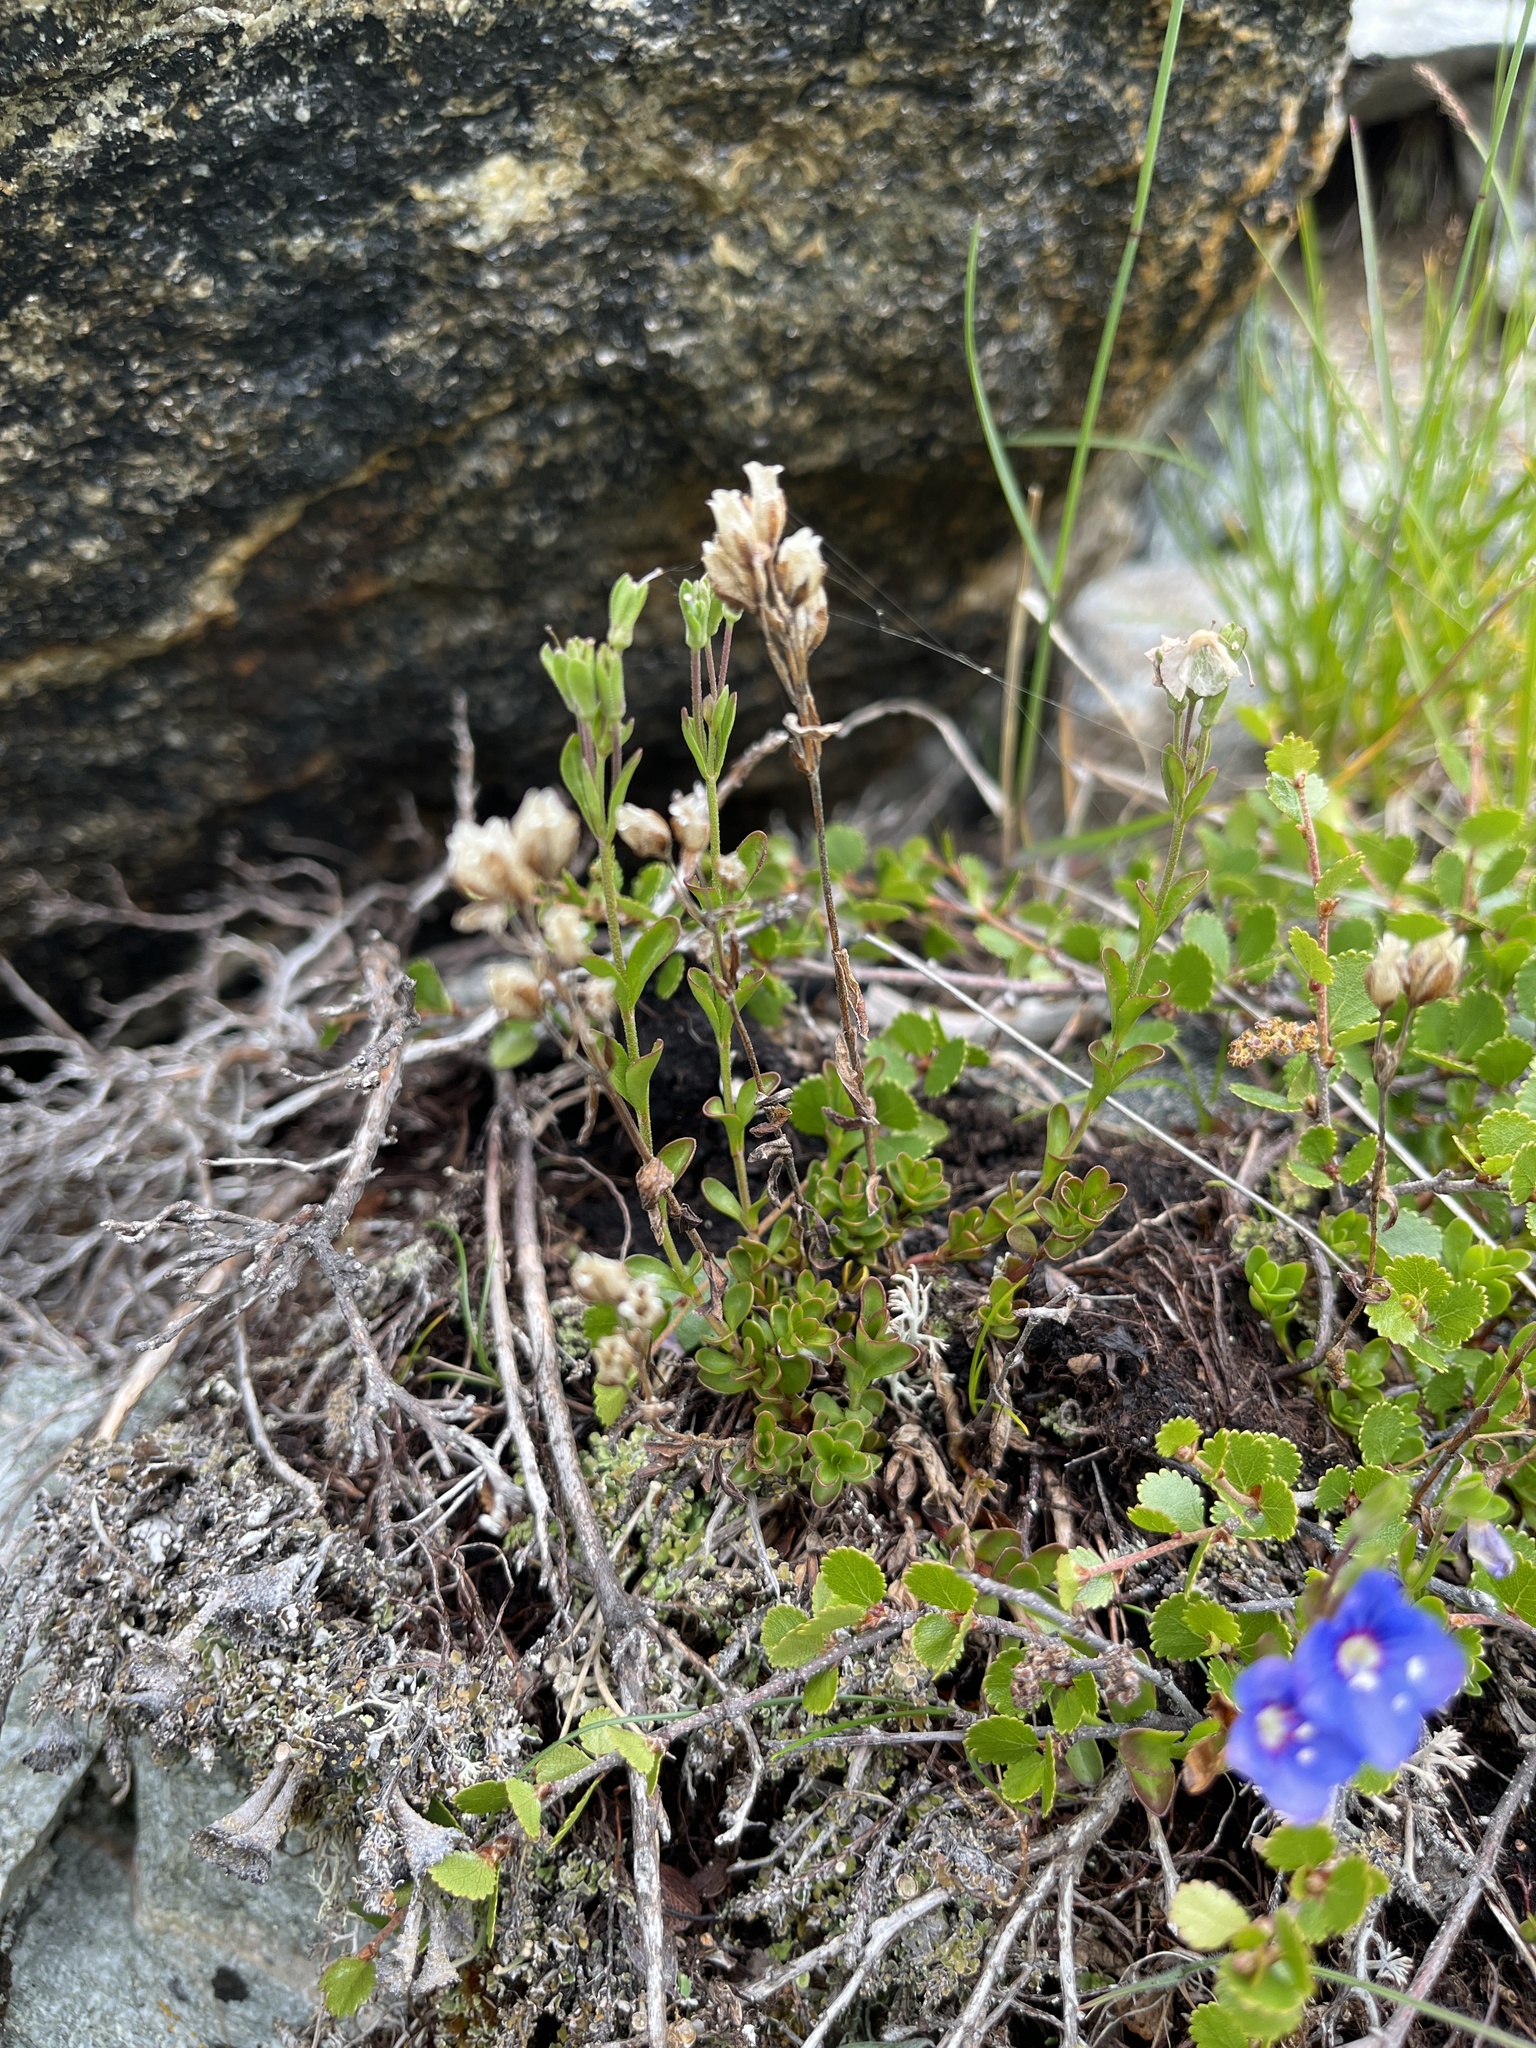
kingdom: Plantae
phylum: Tracheophyta
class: Magnoliopsida
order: Lamiales
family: Plantaginaceae
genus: Veronica
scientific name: Veronica fruticans
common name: Rock speedwell
